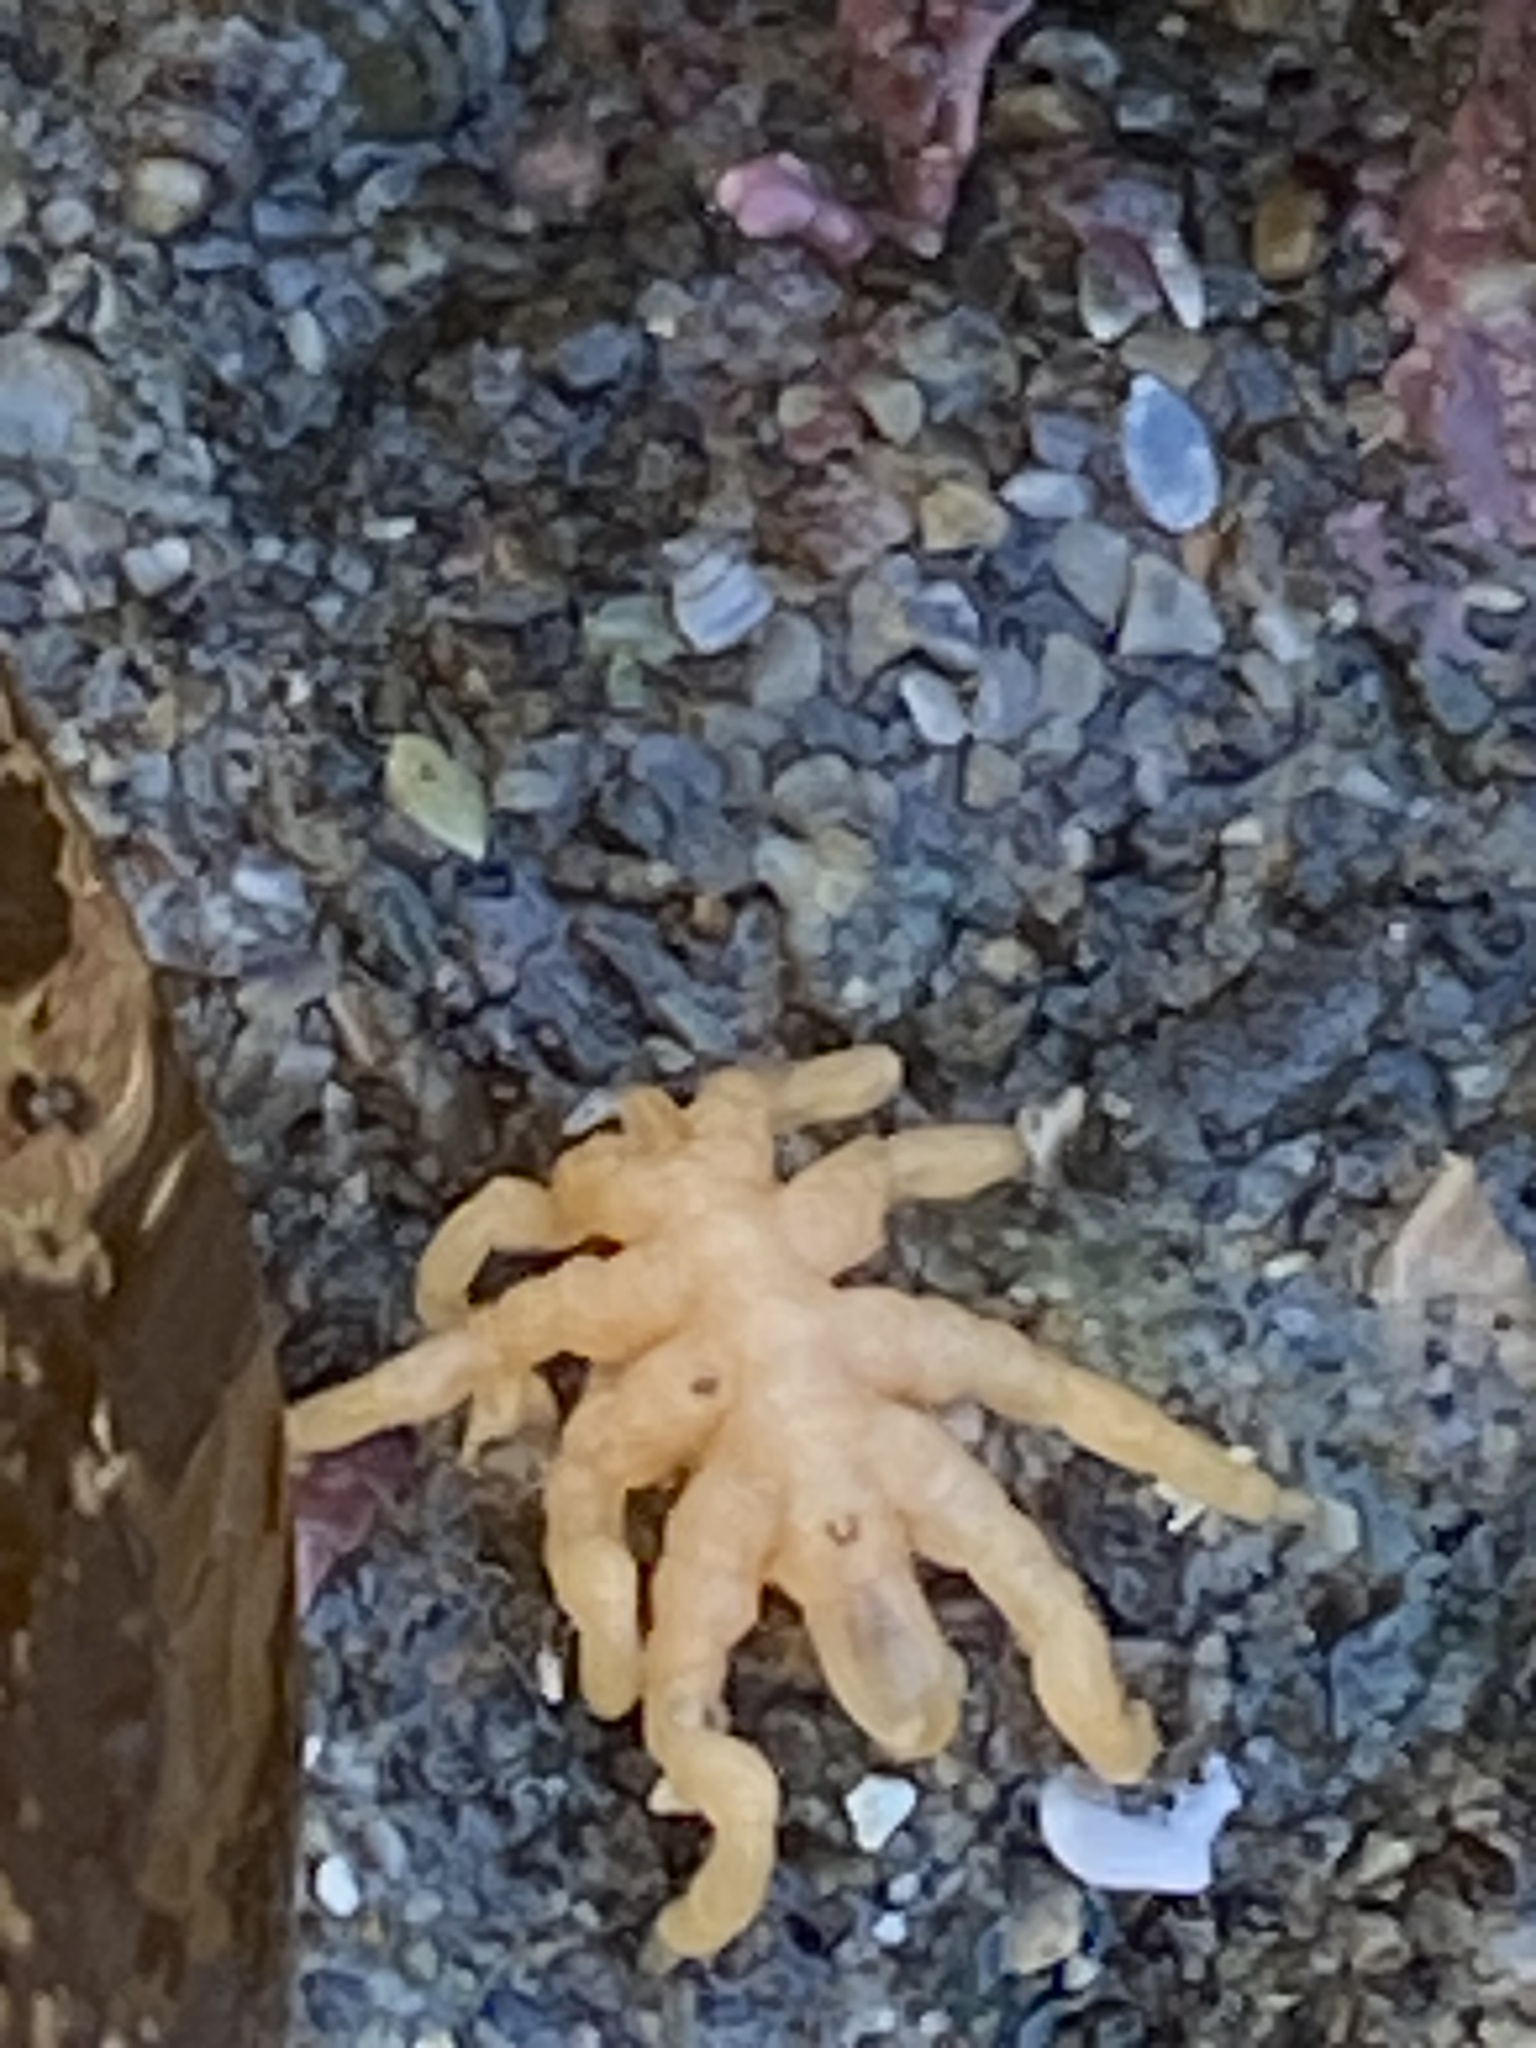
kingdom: Animalia
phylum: Arthropoda
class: Pycnogonida
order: Pantopoda
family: Pycnogonidae
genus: Pycnogonum
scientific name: Pycnogonum stearnsi
